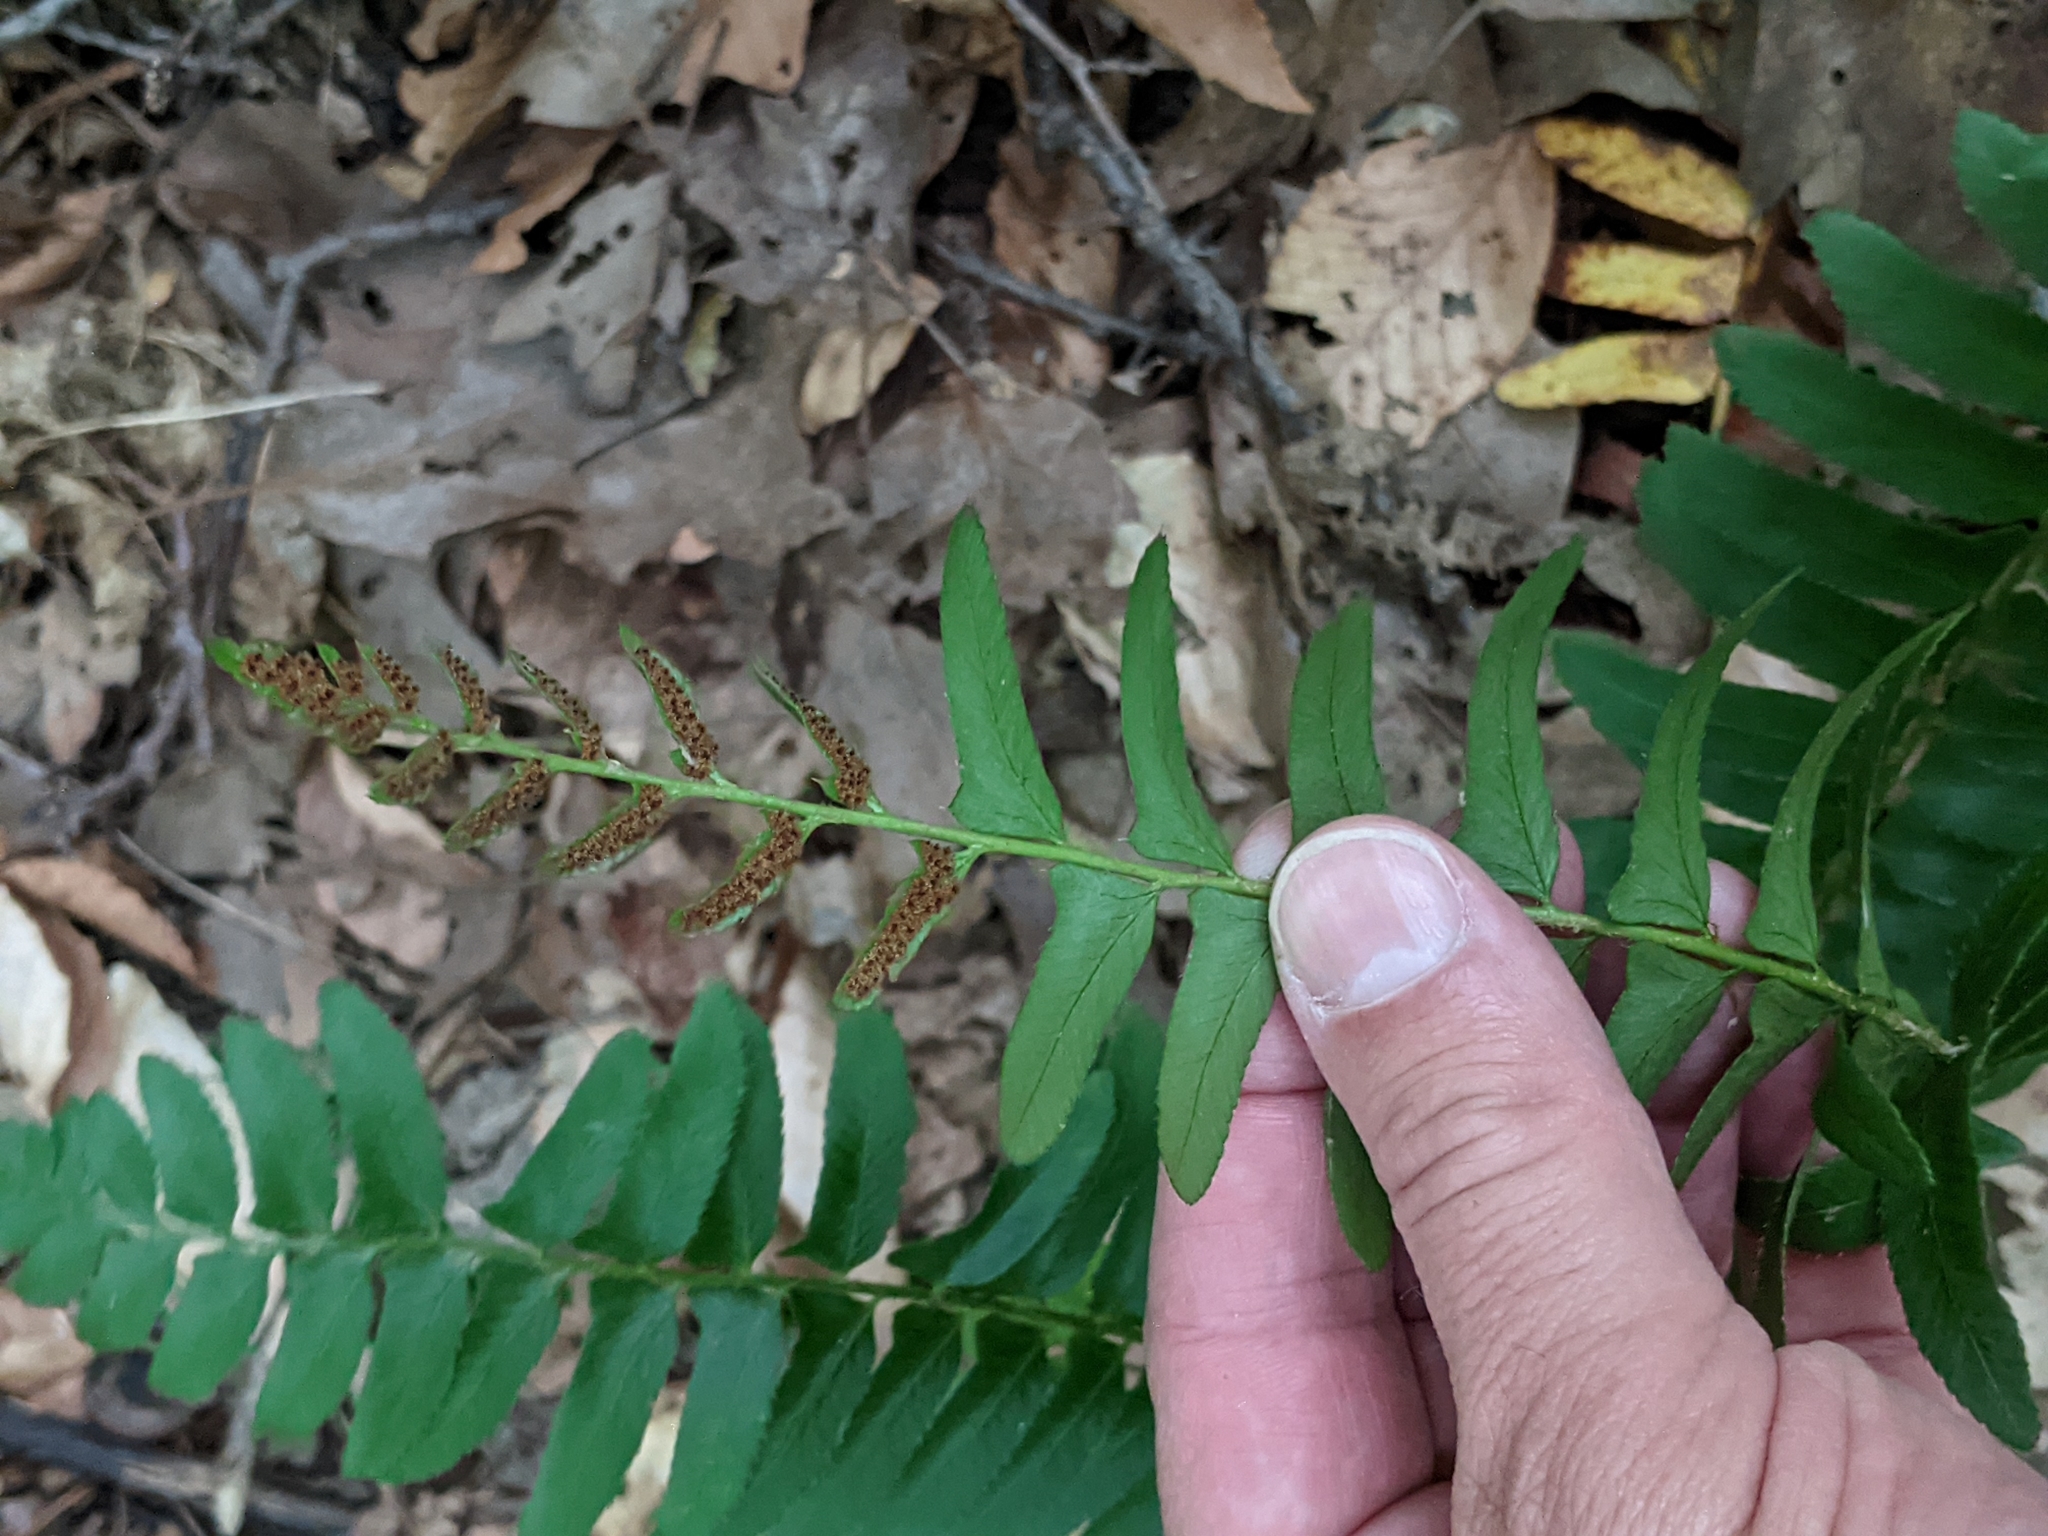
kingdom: Plantae
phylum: Tracheophyta
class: Polypodiopsida
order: Polypodiales
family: Dryopteridaceae
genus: Polystichum
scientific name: Polystichum acrostichoides
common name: Christmas fern
